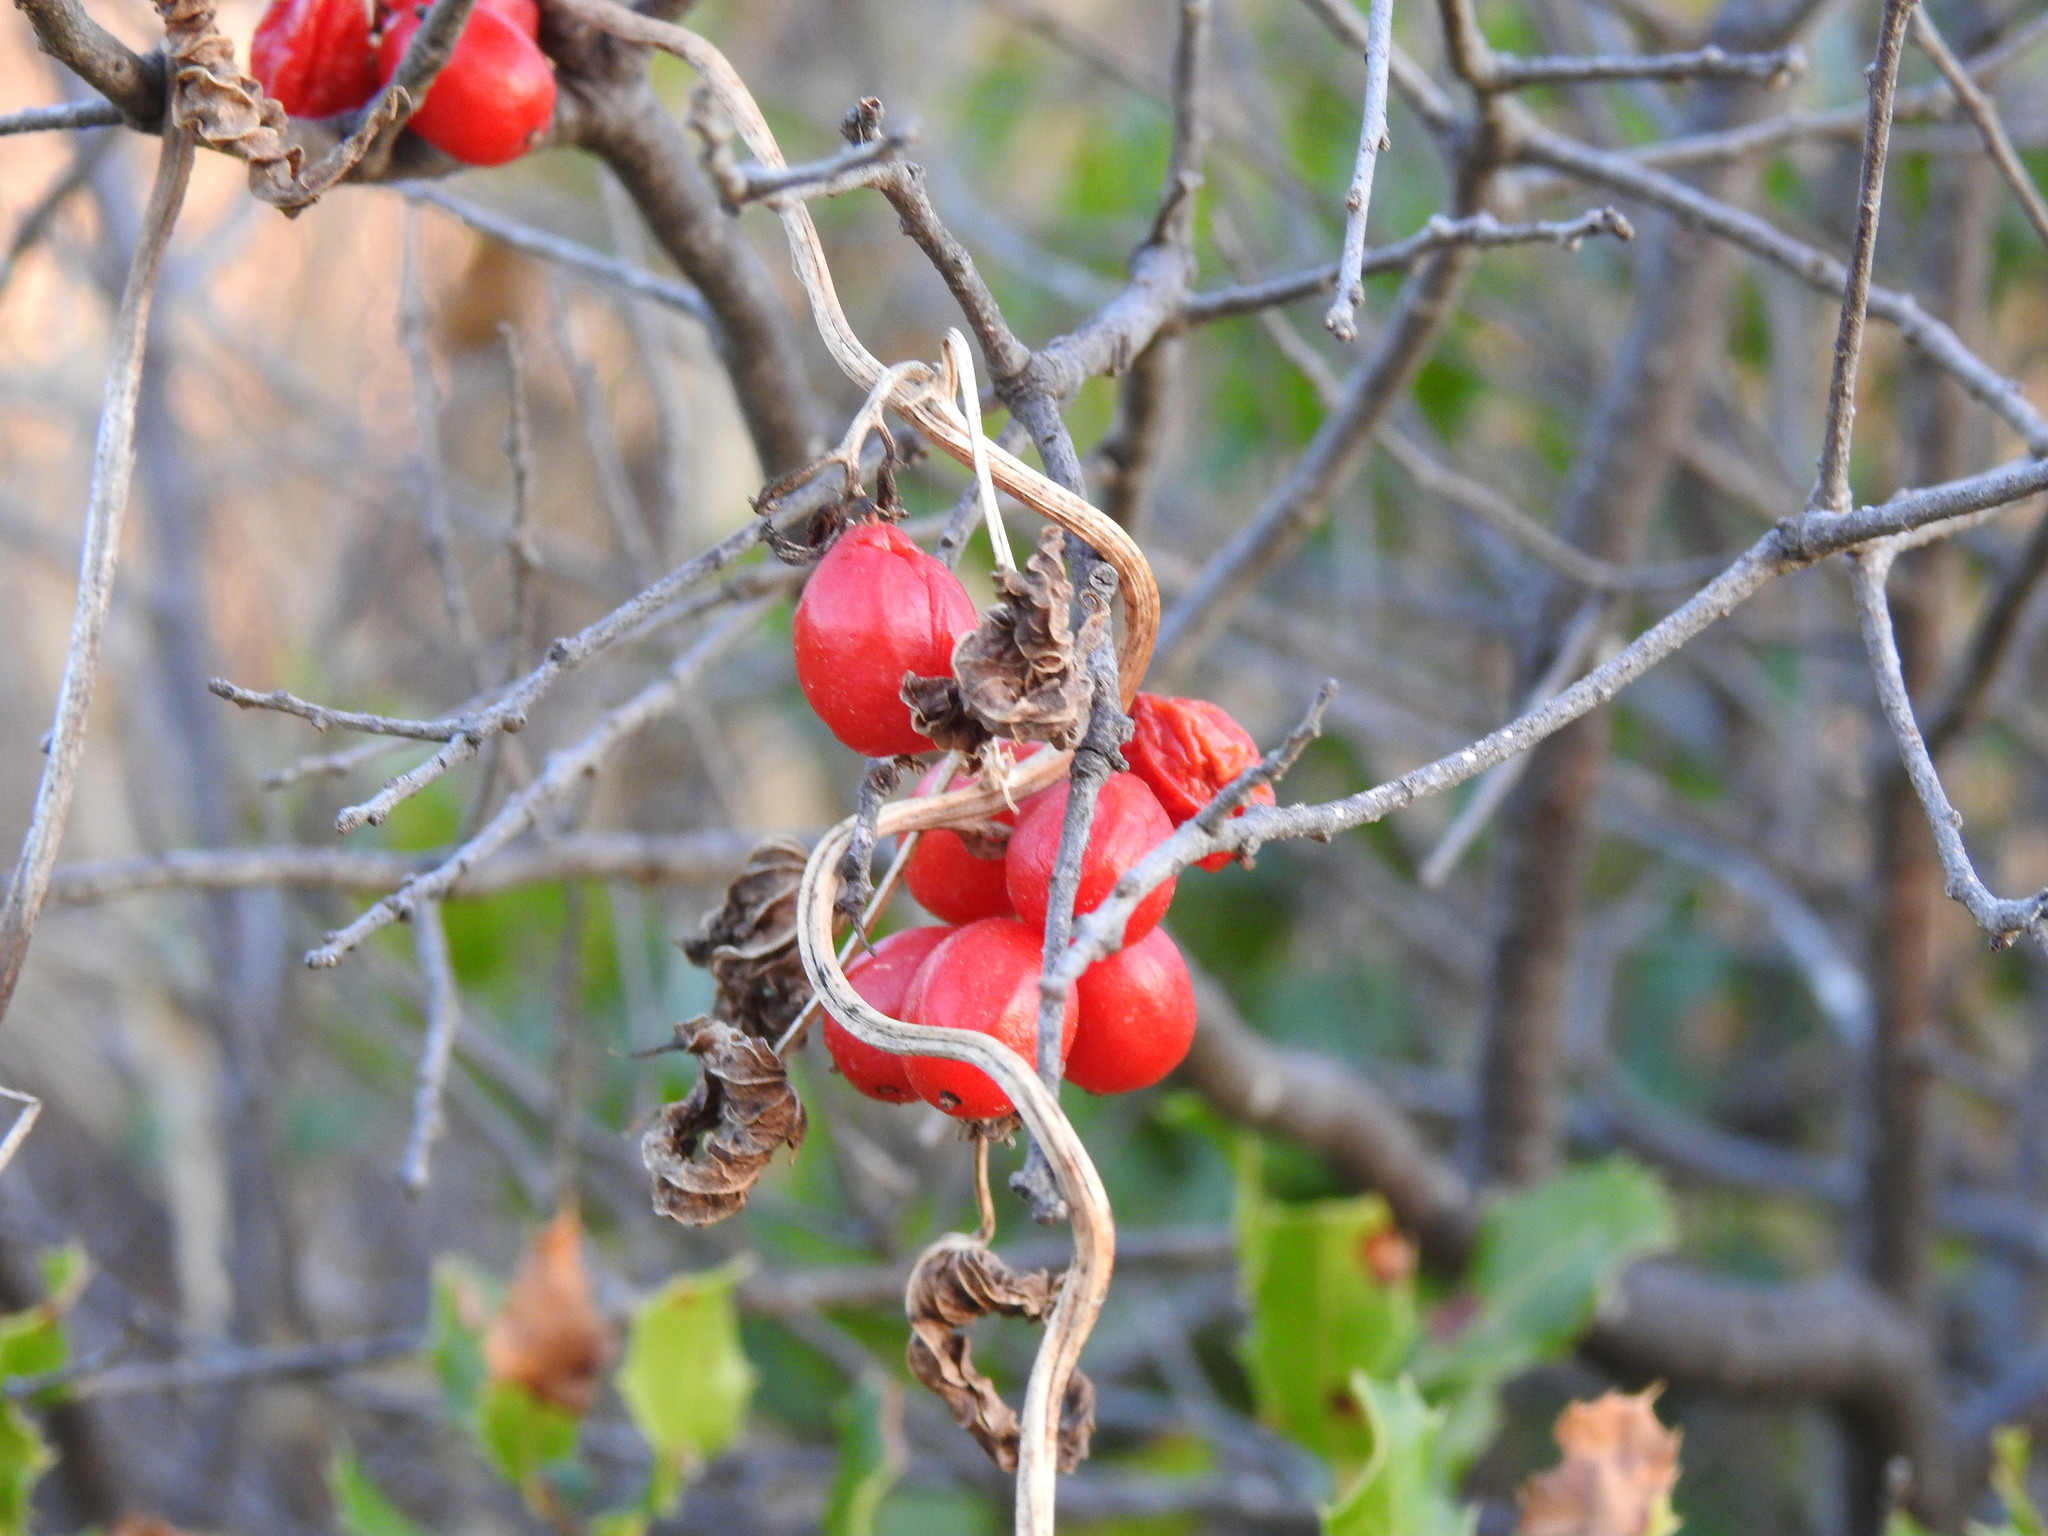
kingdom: Plantae
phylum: Tracheophyta
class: Liliopsida
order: Dioscoreales
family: Dioscoreaceae
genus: Dioscorea
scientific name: Dioscorea communis
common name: Black-bindweed
